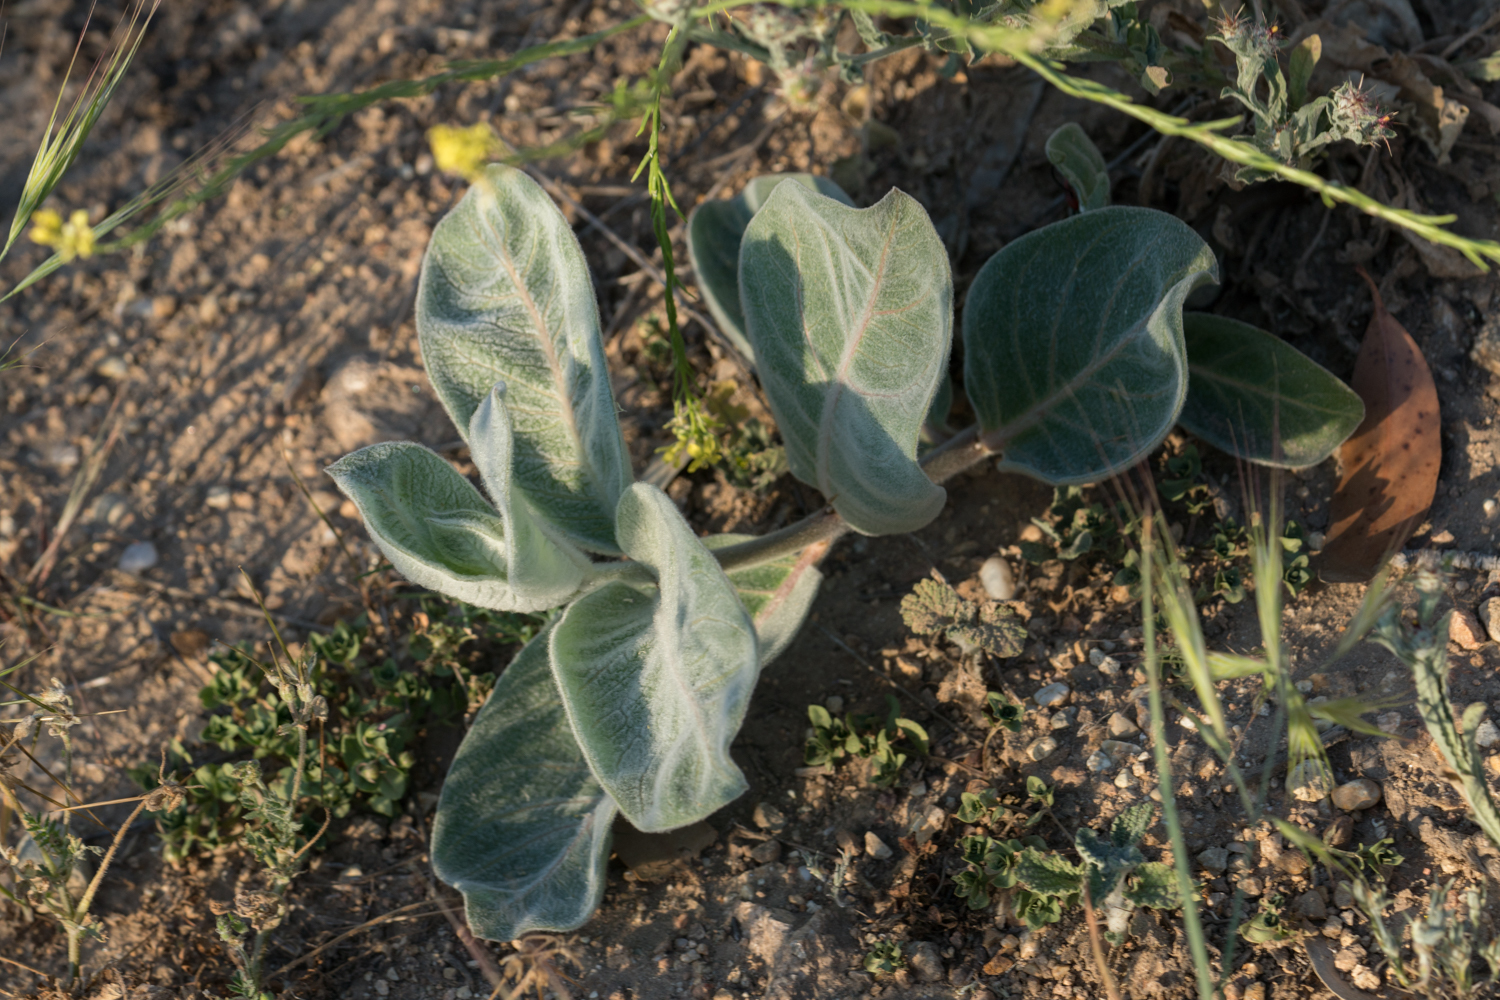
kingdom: Plantae
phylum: Tracheophyta
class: Magnoliopsida
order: Gentianales
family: Apocynaceae
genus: Asclepias
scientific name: Asclepias eriocarpa
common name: Indian milkweed
